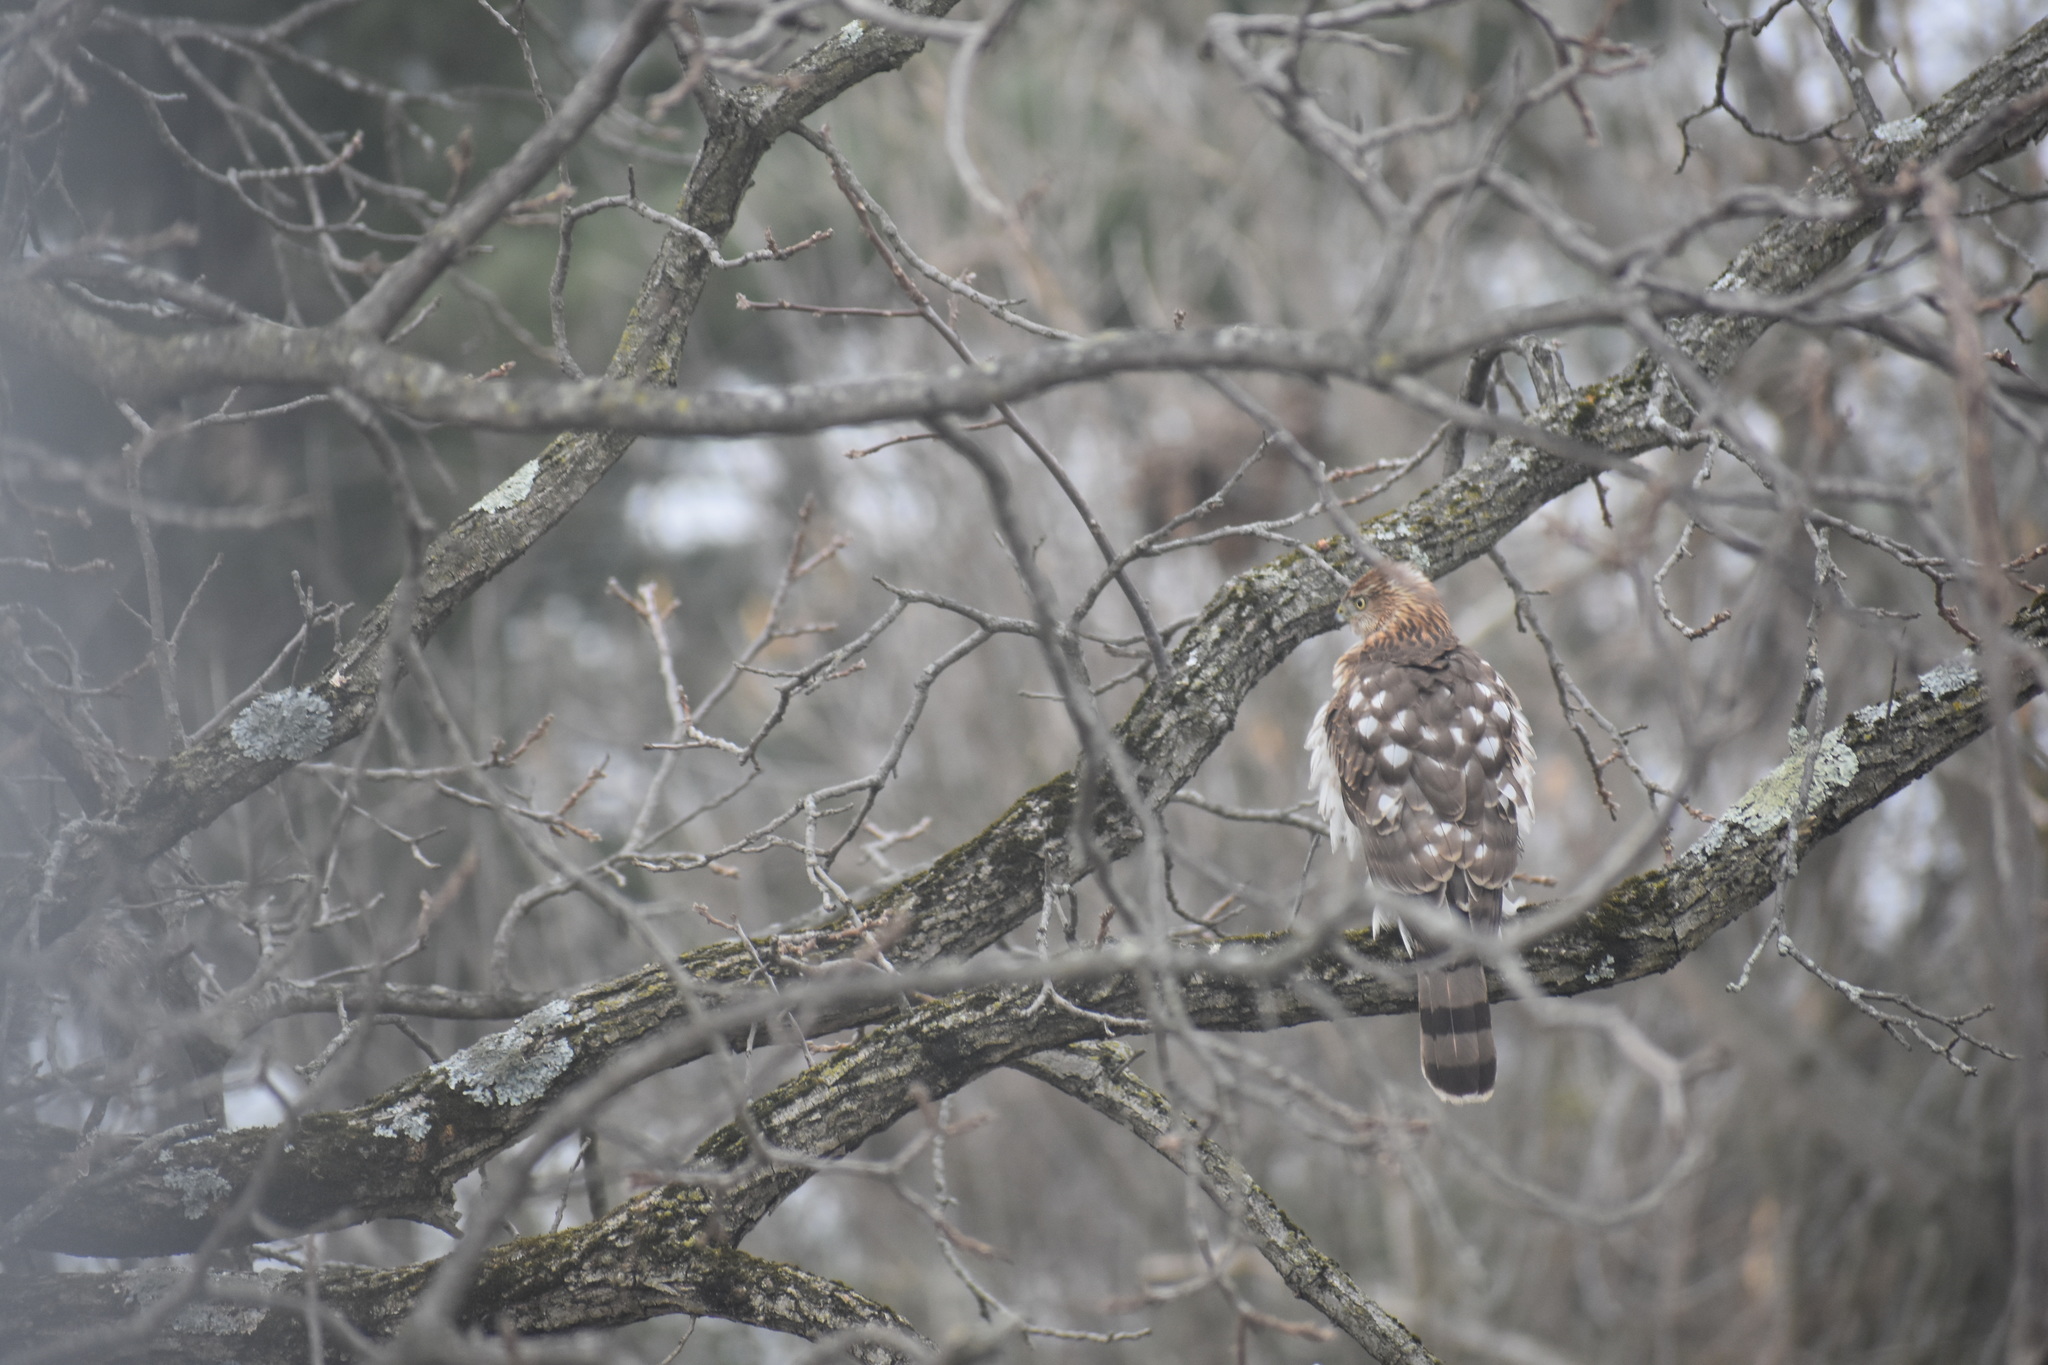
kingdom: Animalia
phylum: Chordata
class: Aves
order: Accipitriformes
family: Accipitridae
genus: Accipiter
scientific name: Accipiter cooperii
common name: Cooper's hawk
